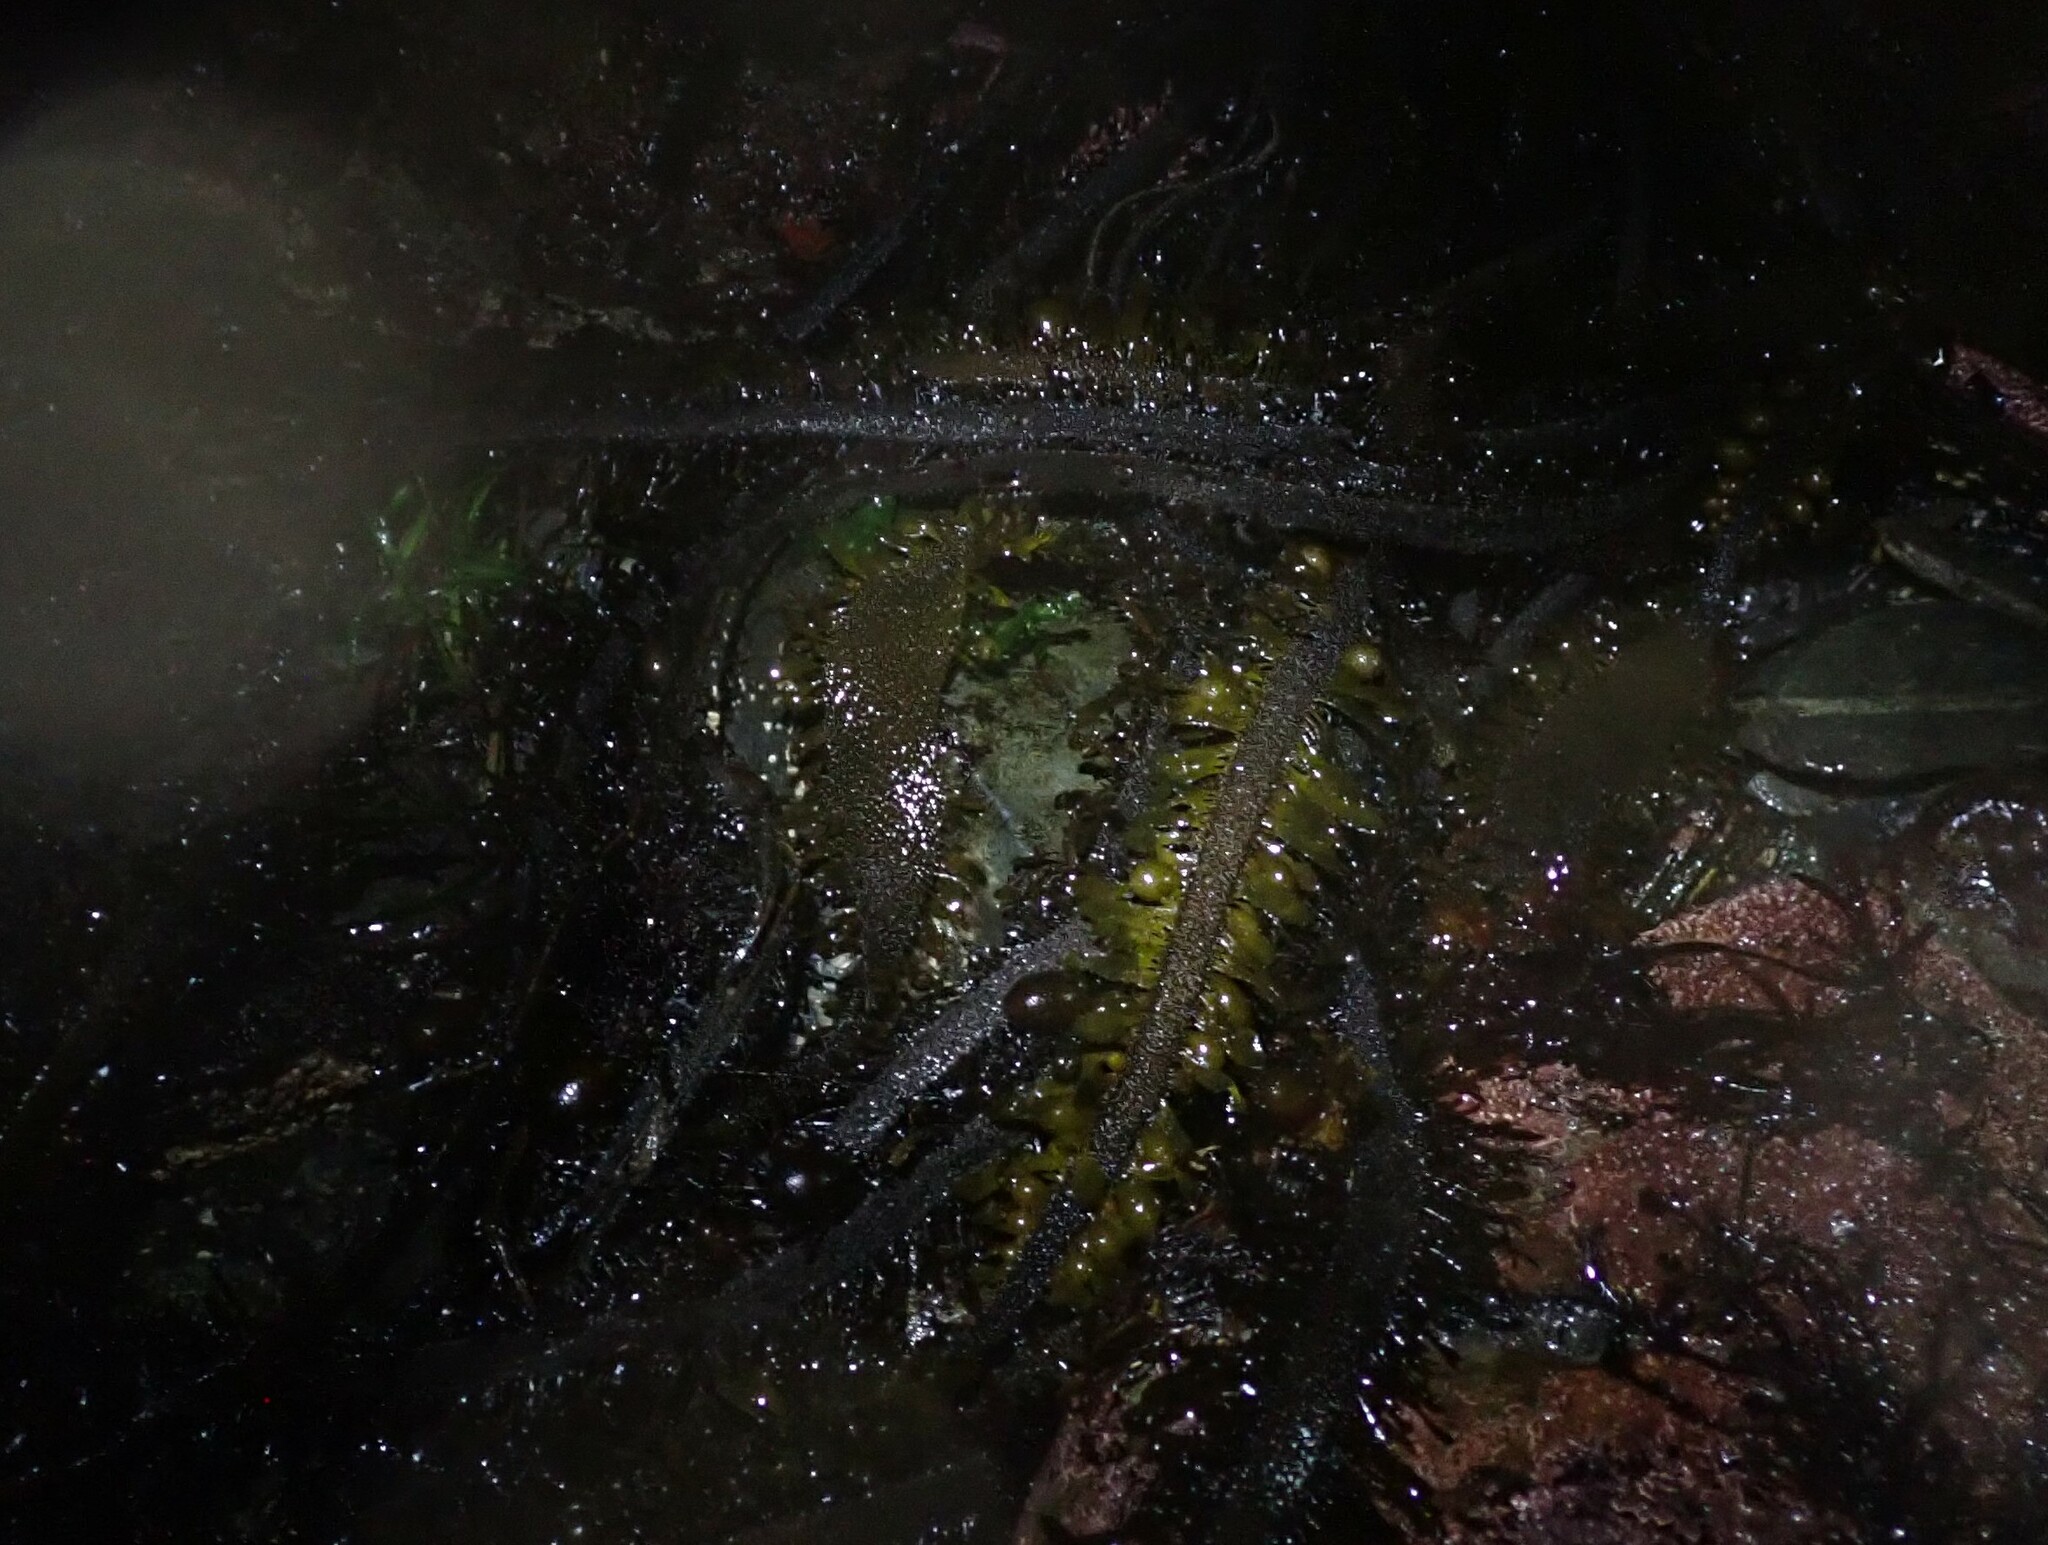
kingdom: Chromista
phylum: Ochrophyta
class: Phaeophyceae
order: Laminariales
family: Lessoniaceae
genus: Egregia
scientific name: Egregia menziesii
